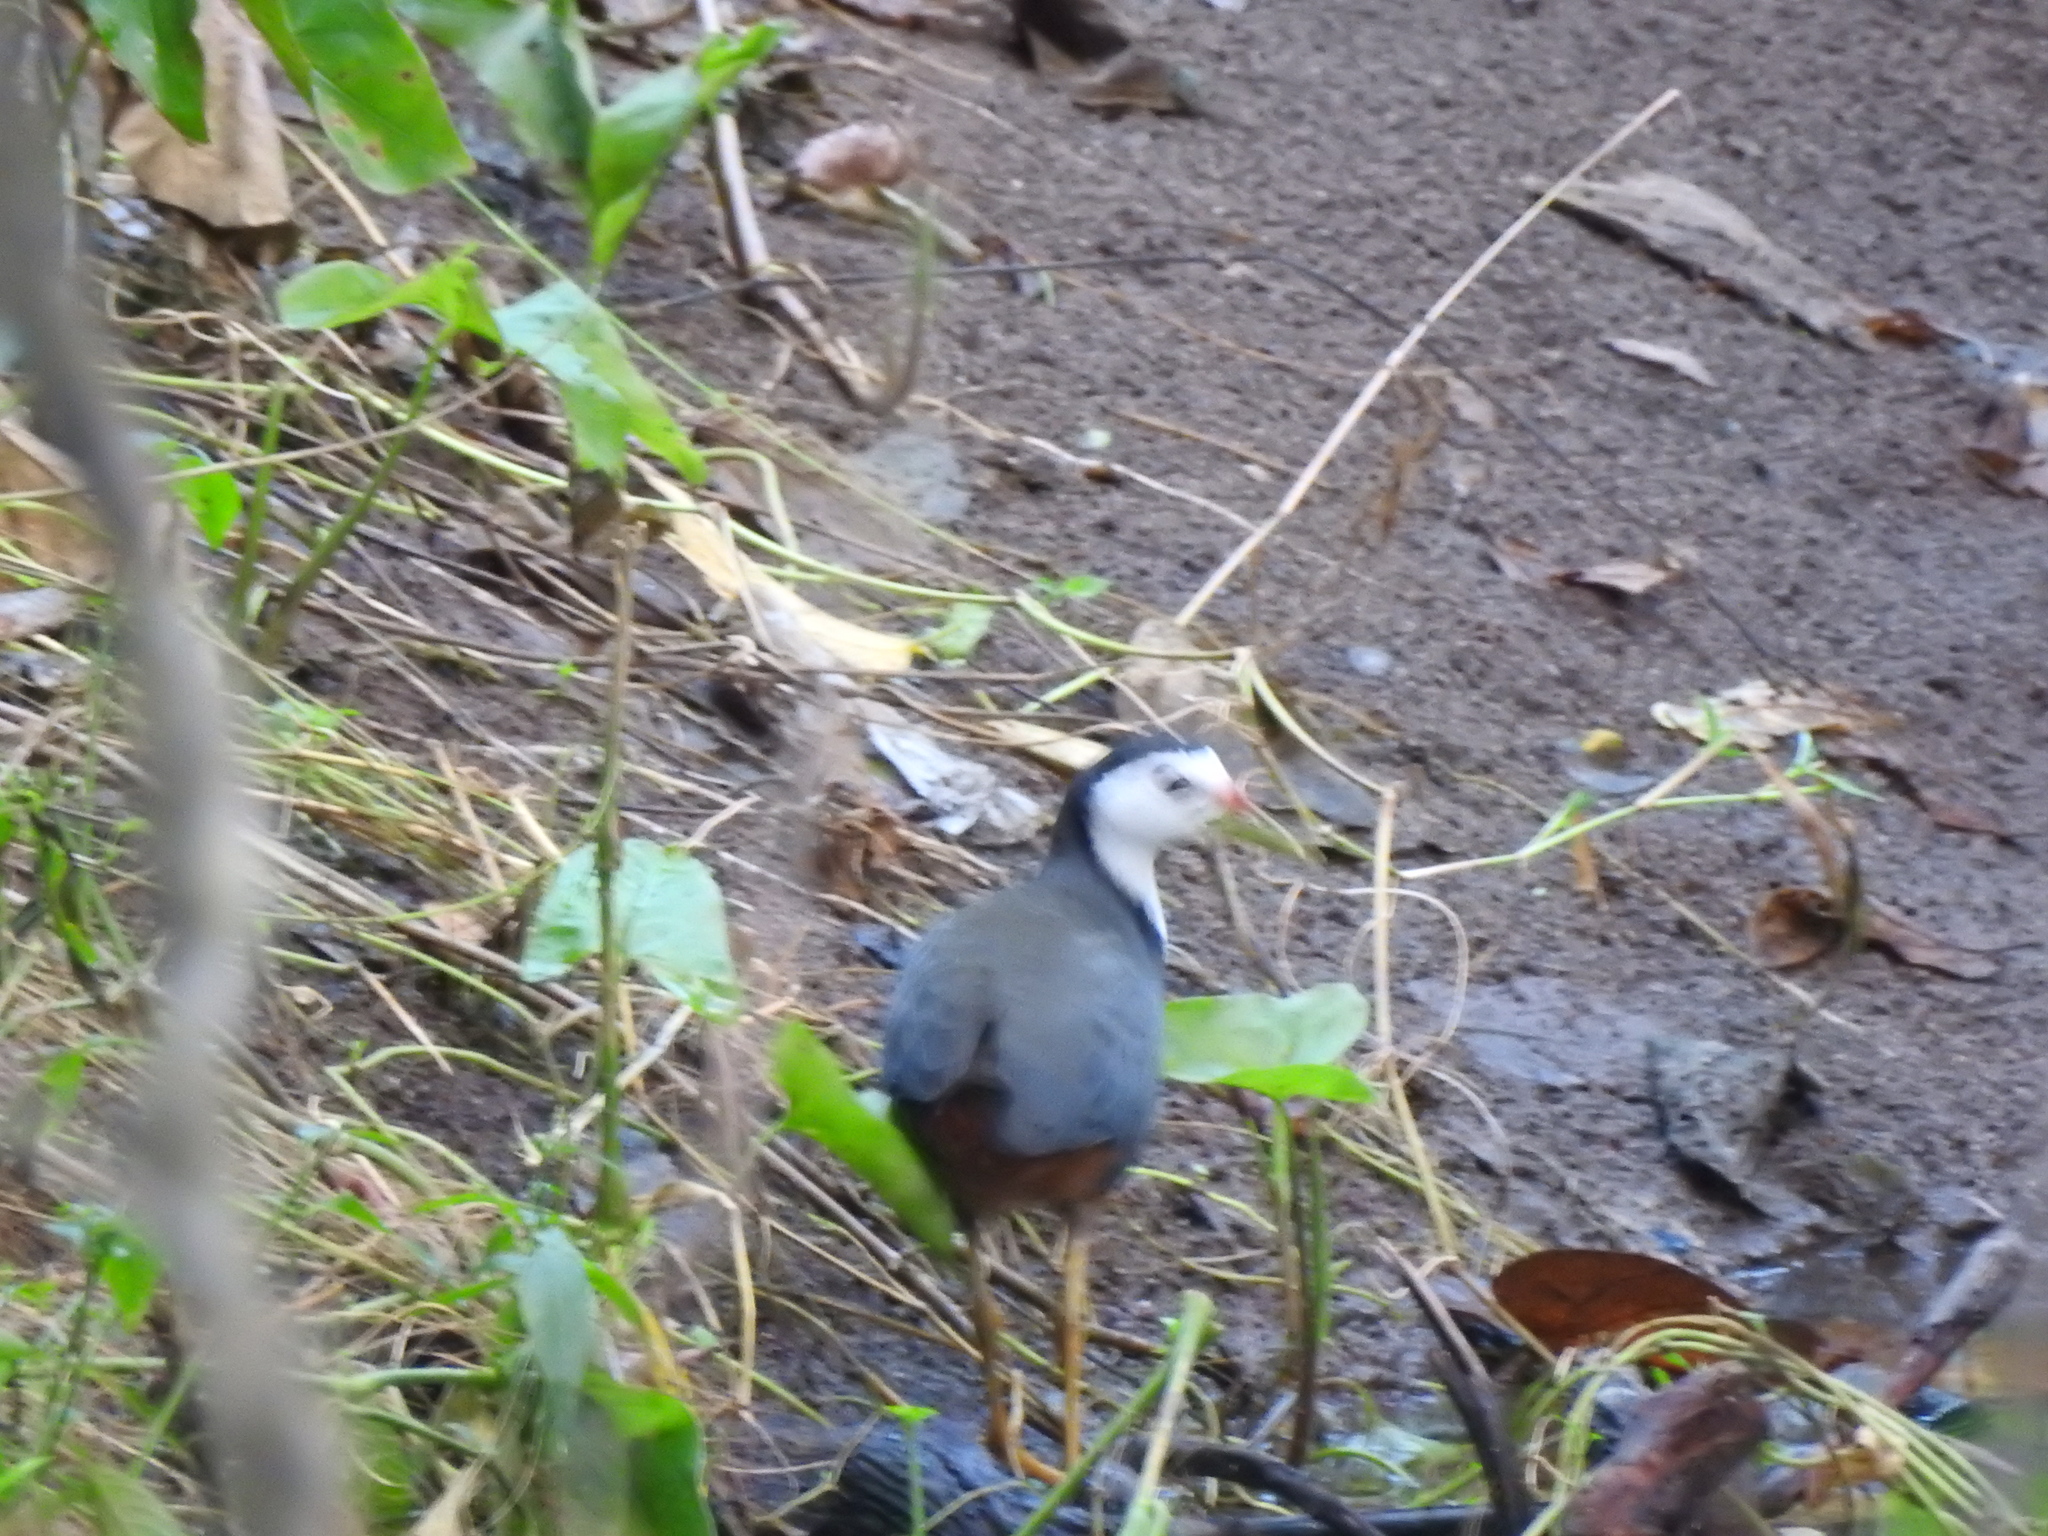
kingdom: Animalia
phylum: Chordata
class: Aves
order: Gruiformes
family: Rallidae
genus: Amaurornis
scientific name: Amaurornis phoenicurus
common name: White-breasted waterhen
